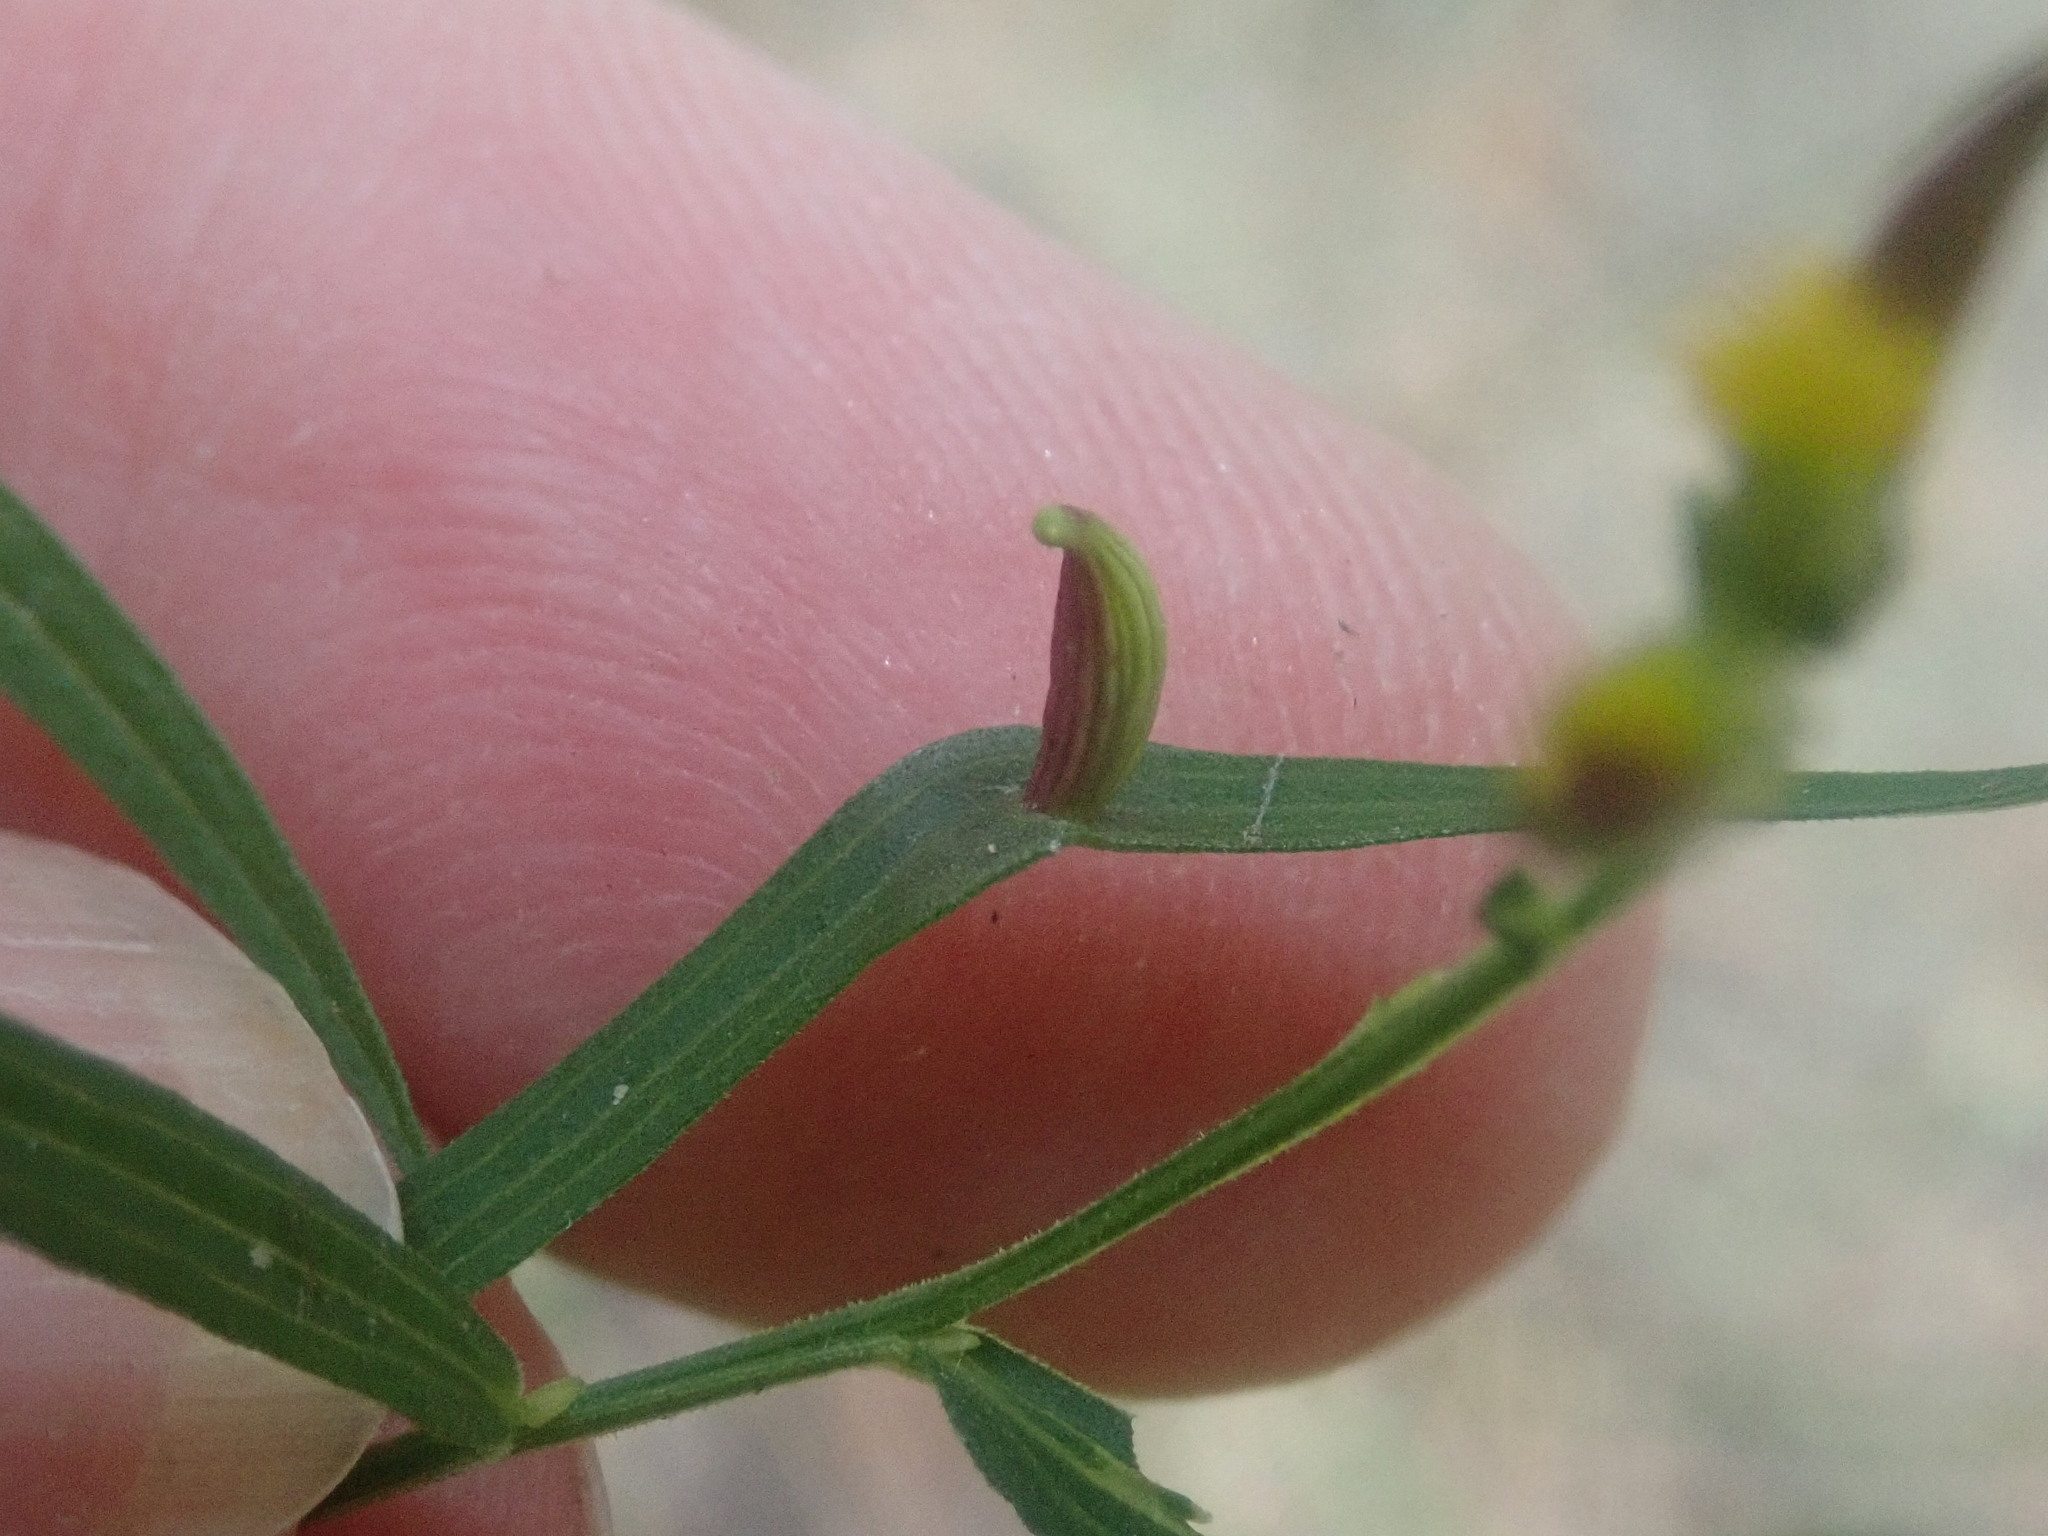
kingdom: Animalia
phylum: Arthropoda
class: Insecta
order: Diptera
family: Cecidomyiidae
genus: Rhopalomyia
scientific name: Rhopalomyia fusiformae
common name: Goldentop sessile gall midge
